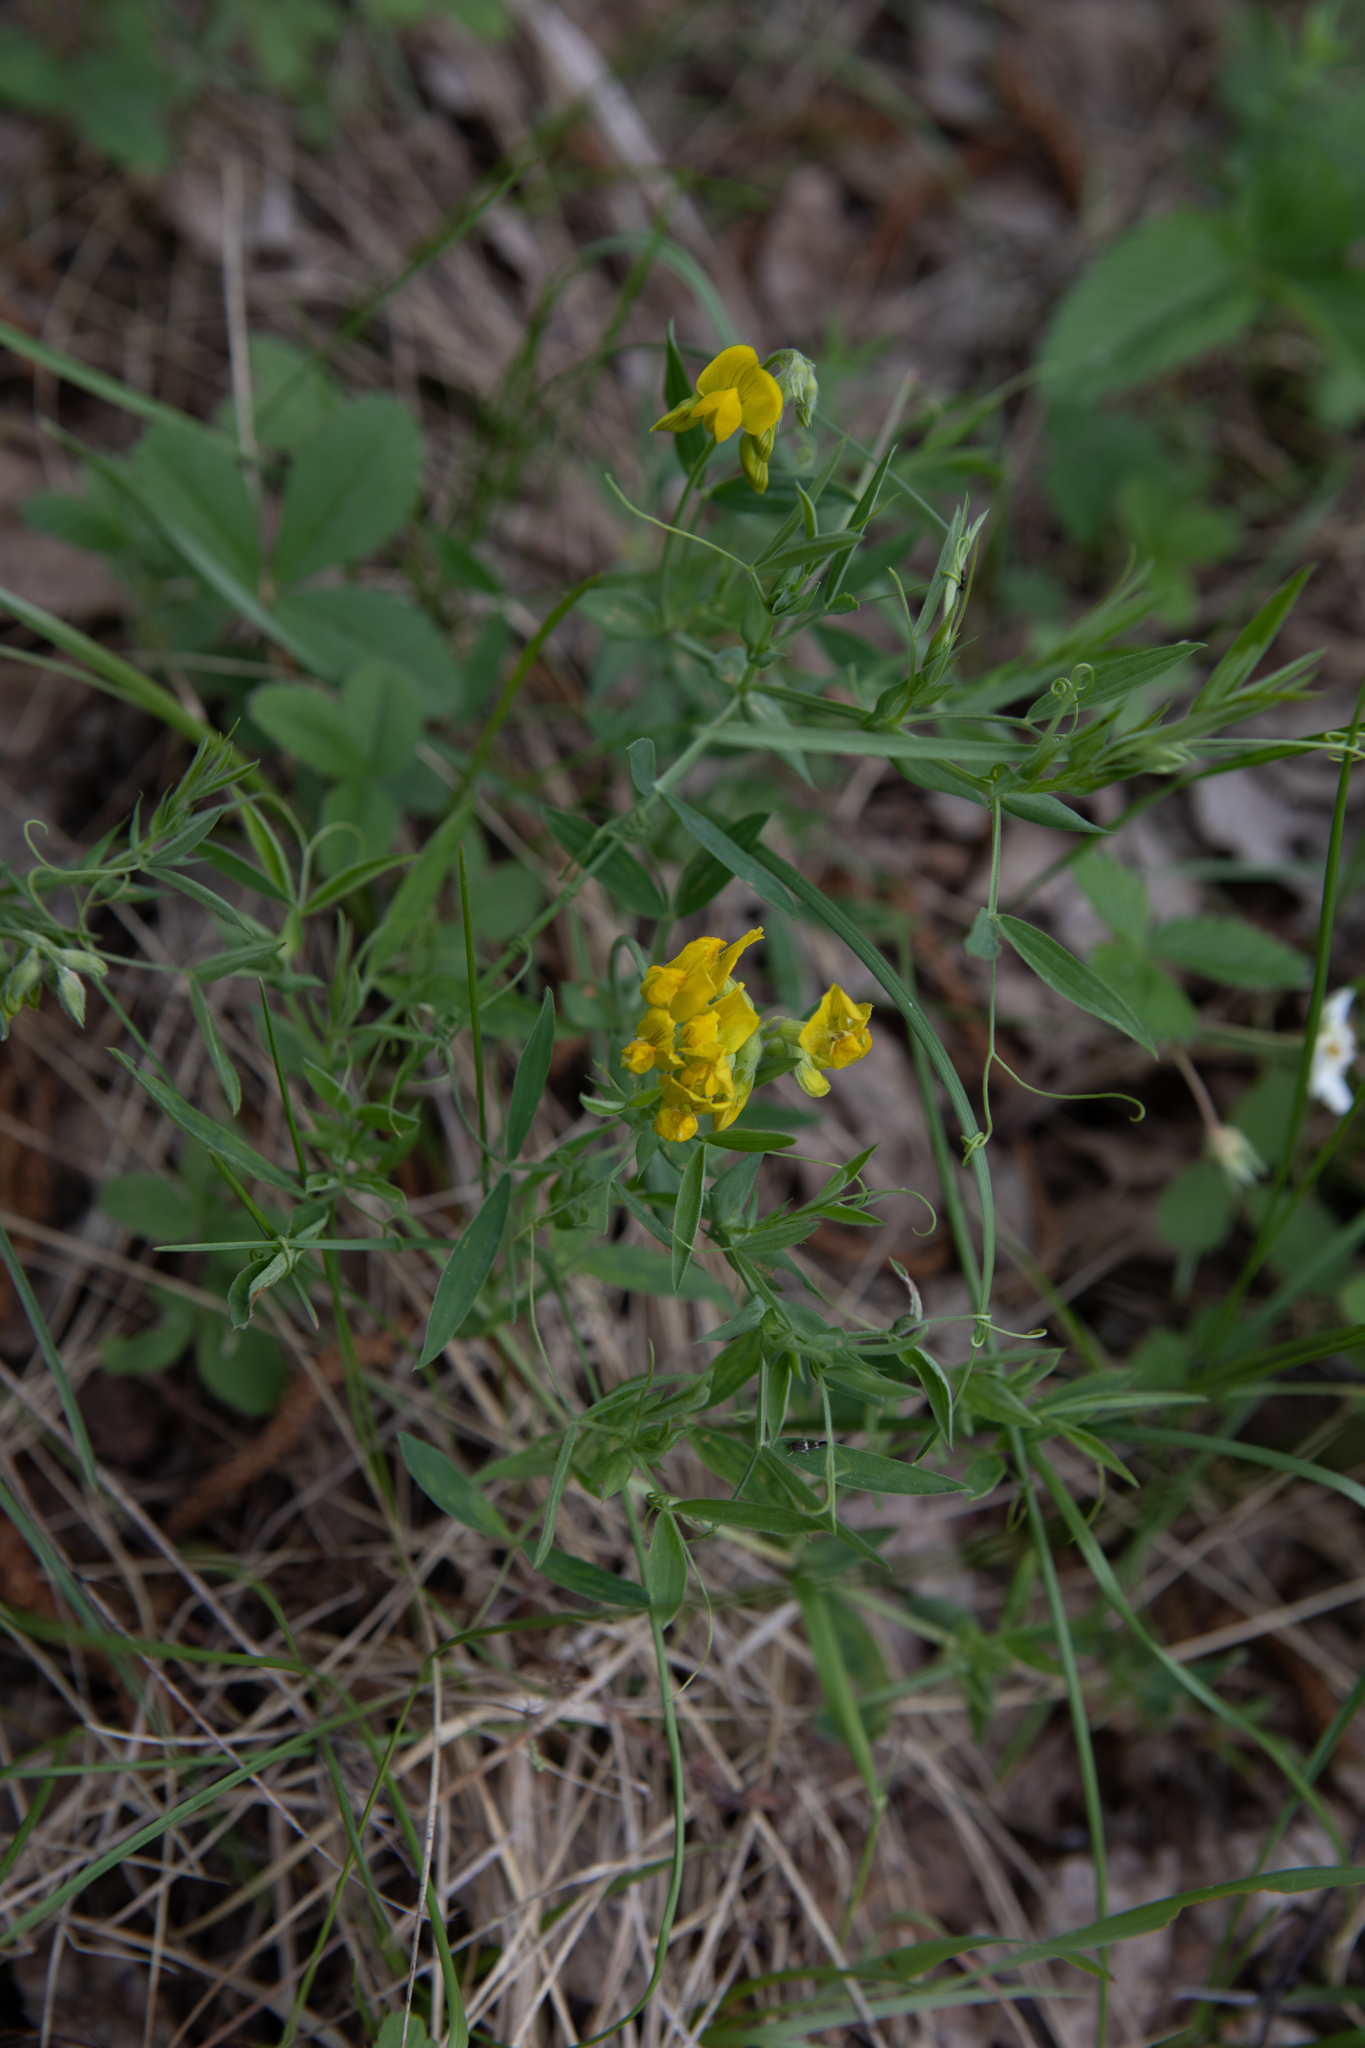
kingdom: Plantae
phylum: Tracheophyta
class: Magnoliopsida
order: Fabales
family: Fabaceae
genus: Lathyrus
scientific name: Lathyrus pratensis
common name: Meadow vetchling
